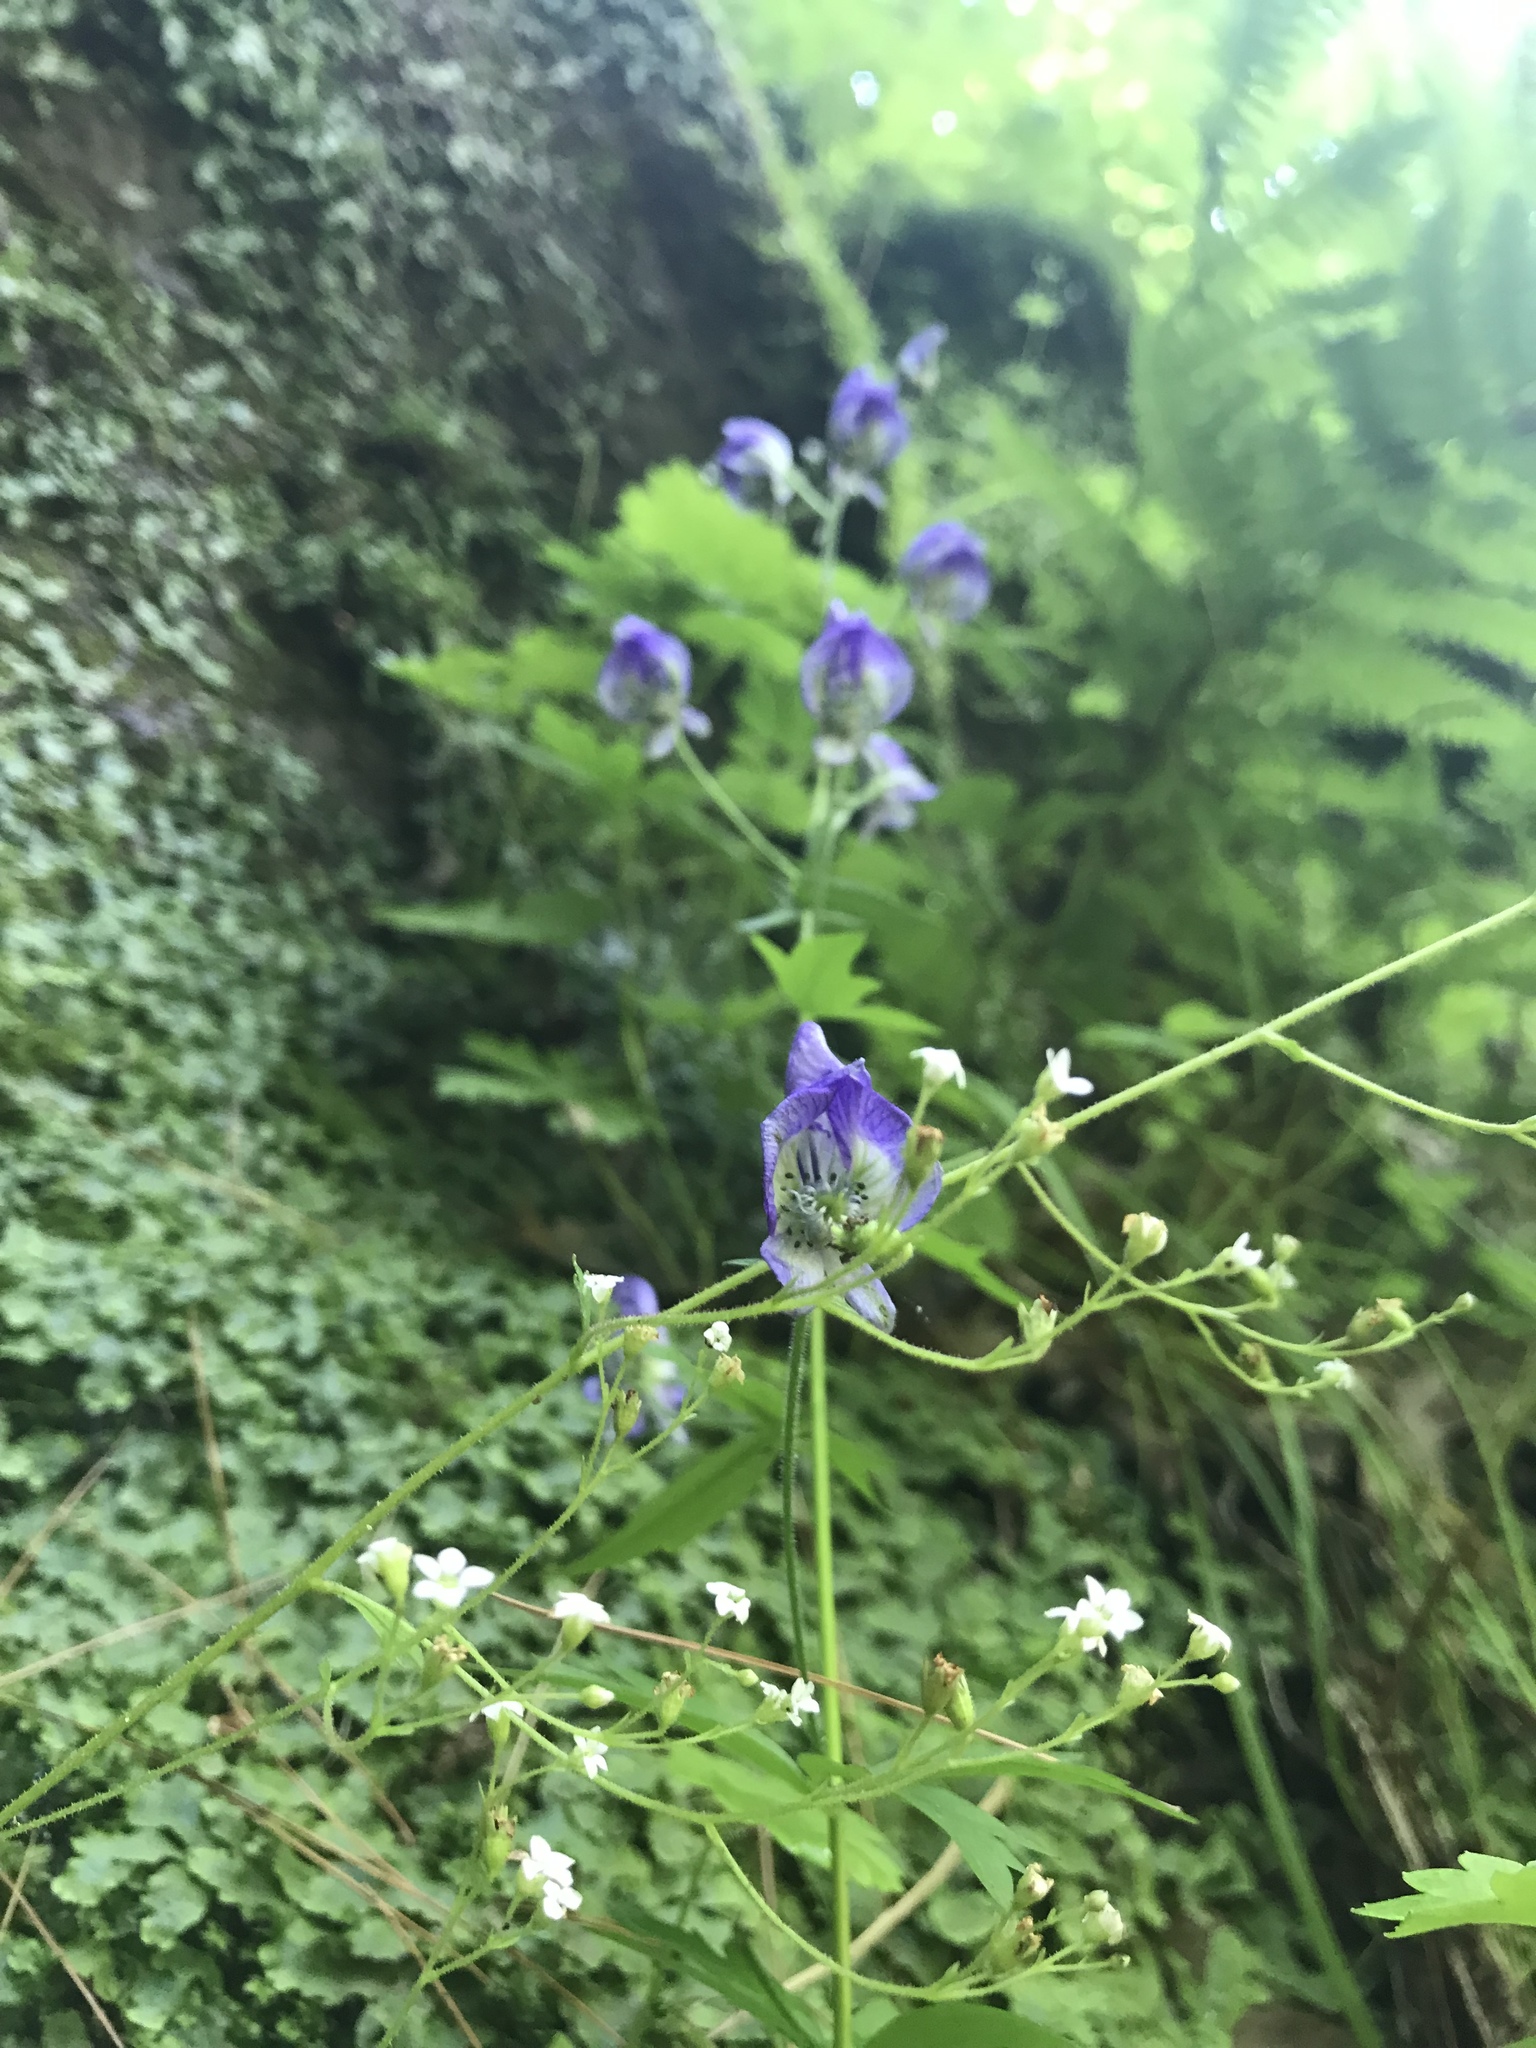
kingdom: Plantae
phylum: Tracheophyta
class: Magnoliopsida
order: Ranunculales
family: Ranunculaceae
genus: Aconitum
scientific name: Aconitum noveboracense
